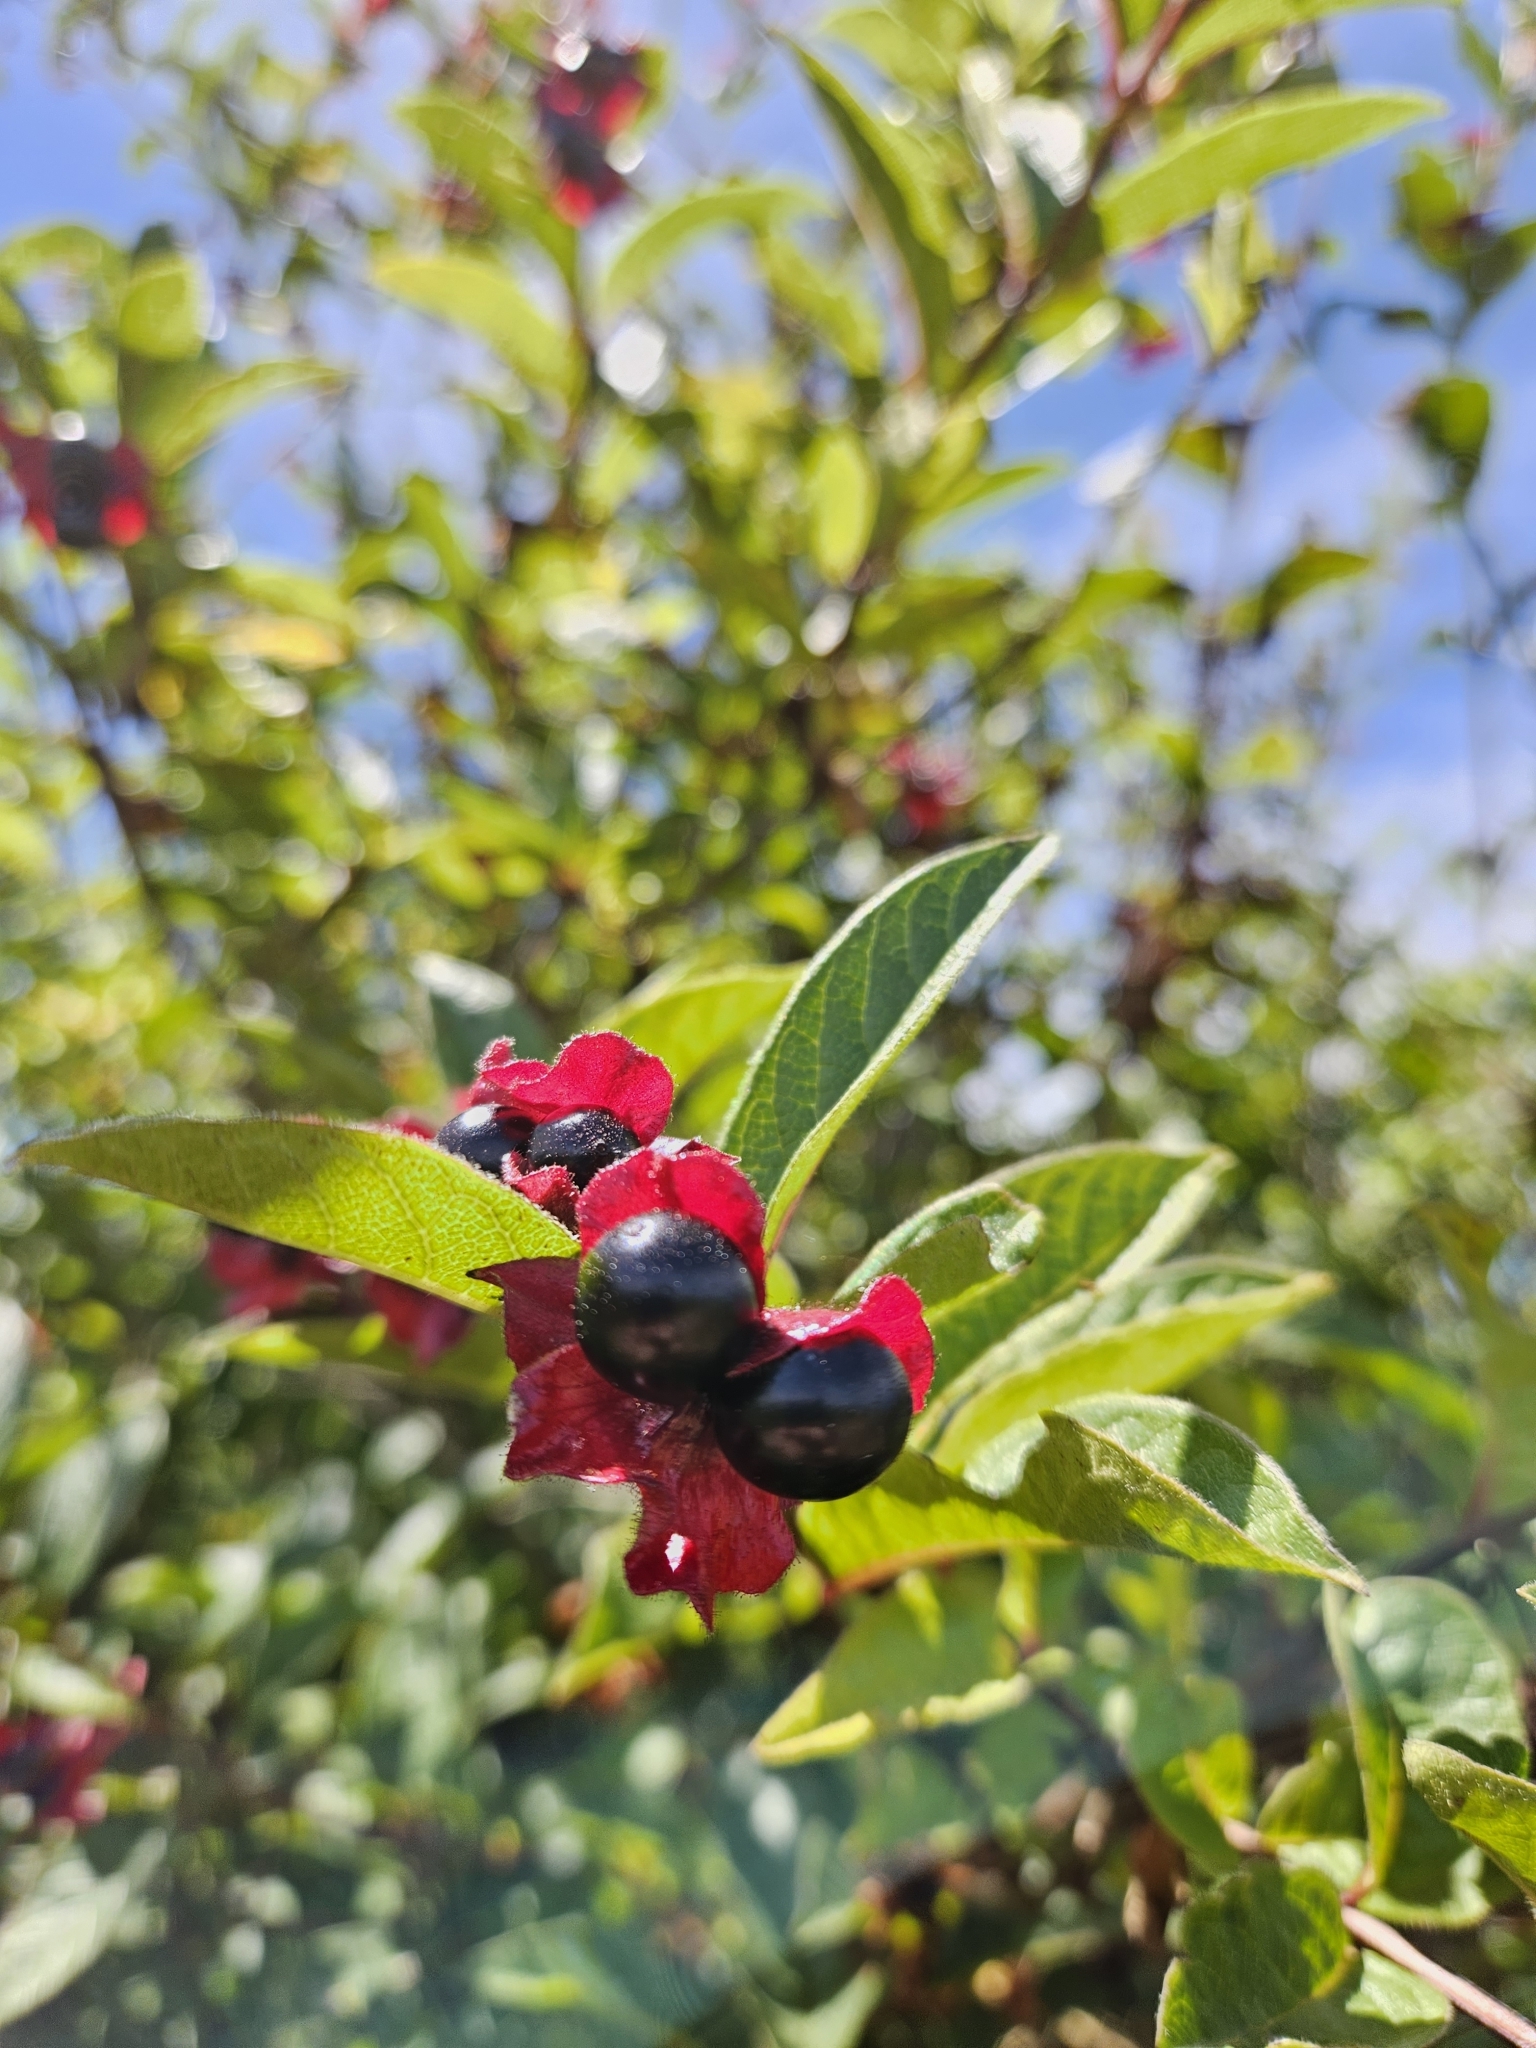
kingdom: Plantae
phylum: Tracheophyta
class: Magnoliopsida
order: Dipsacales
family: Caprifoliaceae
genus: Lonicera
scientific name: Lonicera involucrata
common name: Californian honeysuckle
